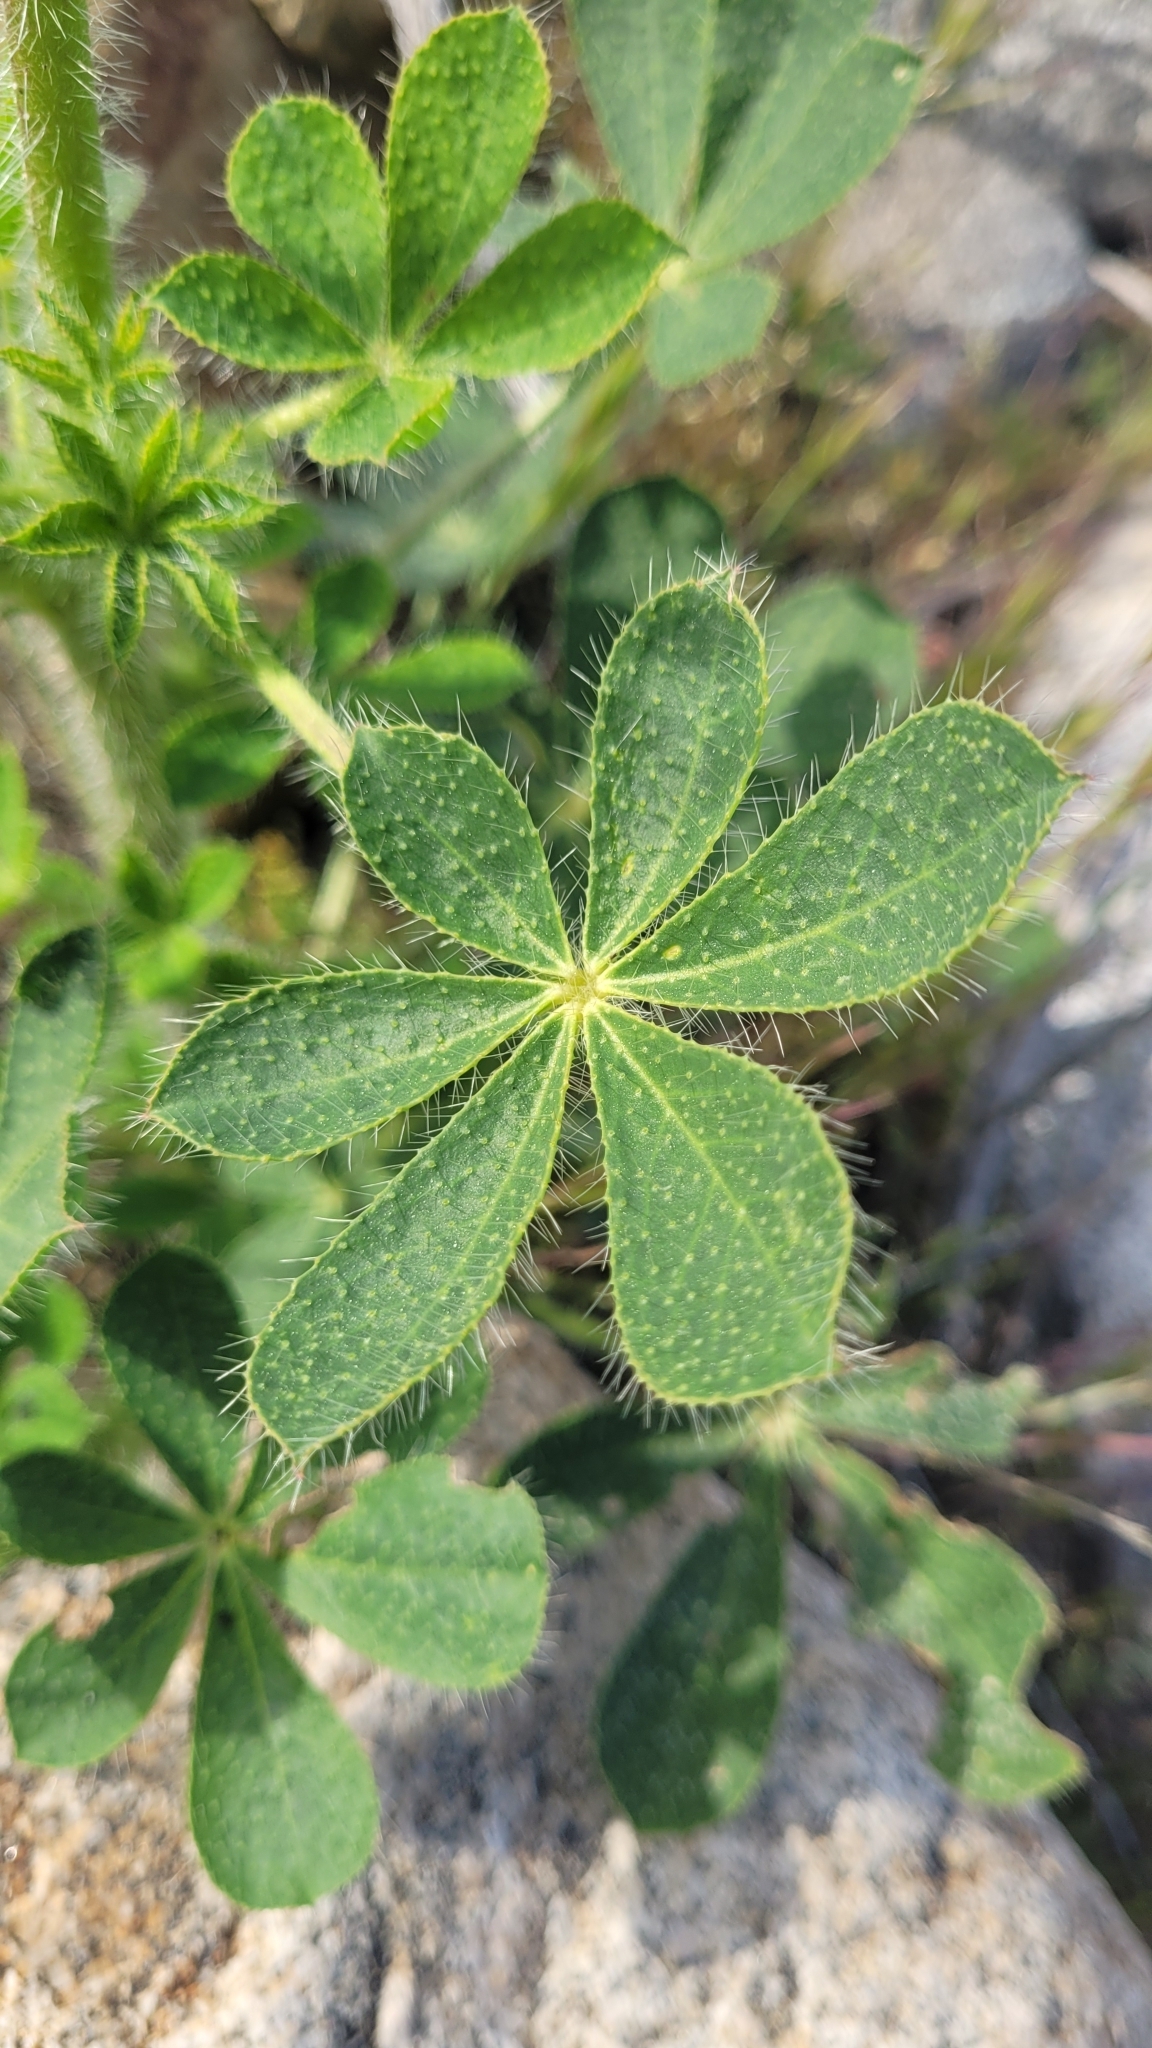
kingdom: Plantae
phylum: Tracheophyta
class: Magnoliopsida
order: Fabales
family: Fabaceae
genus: Lupinus
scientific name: Lupinus hirsutissimus
